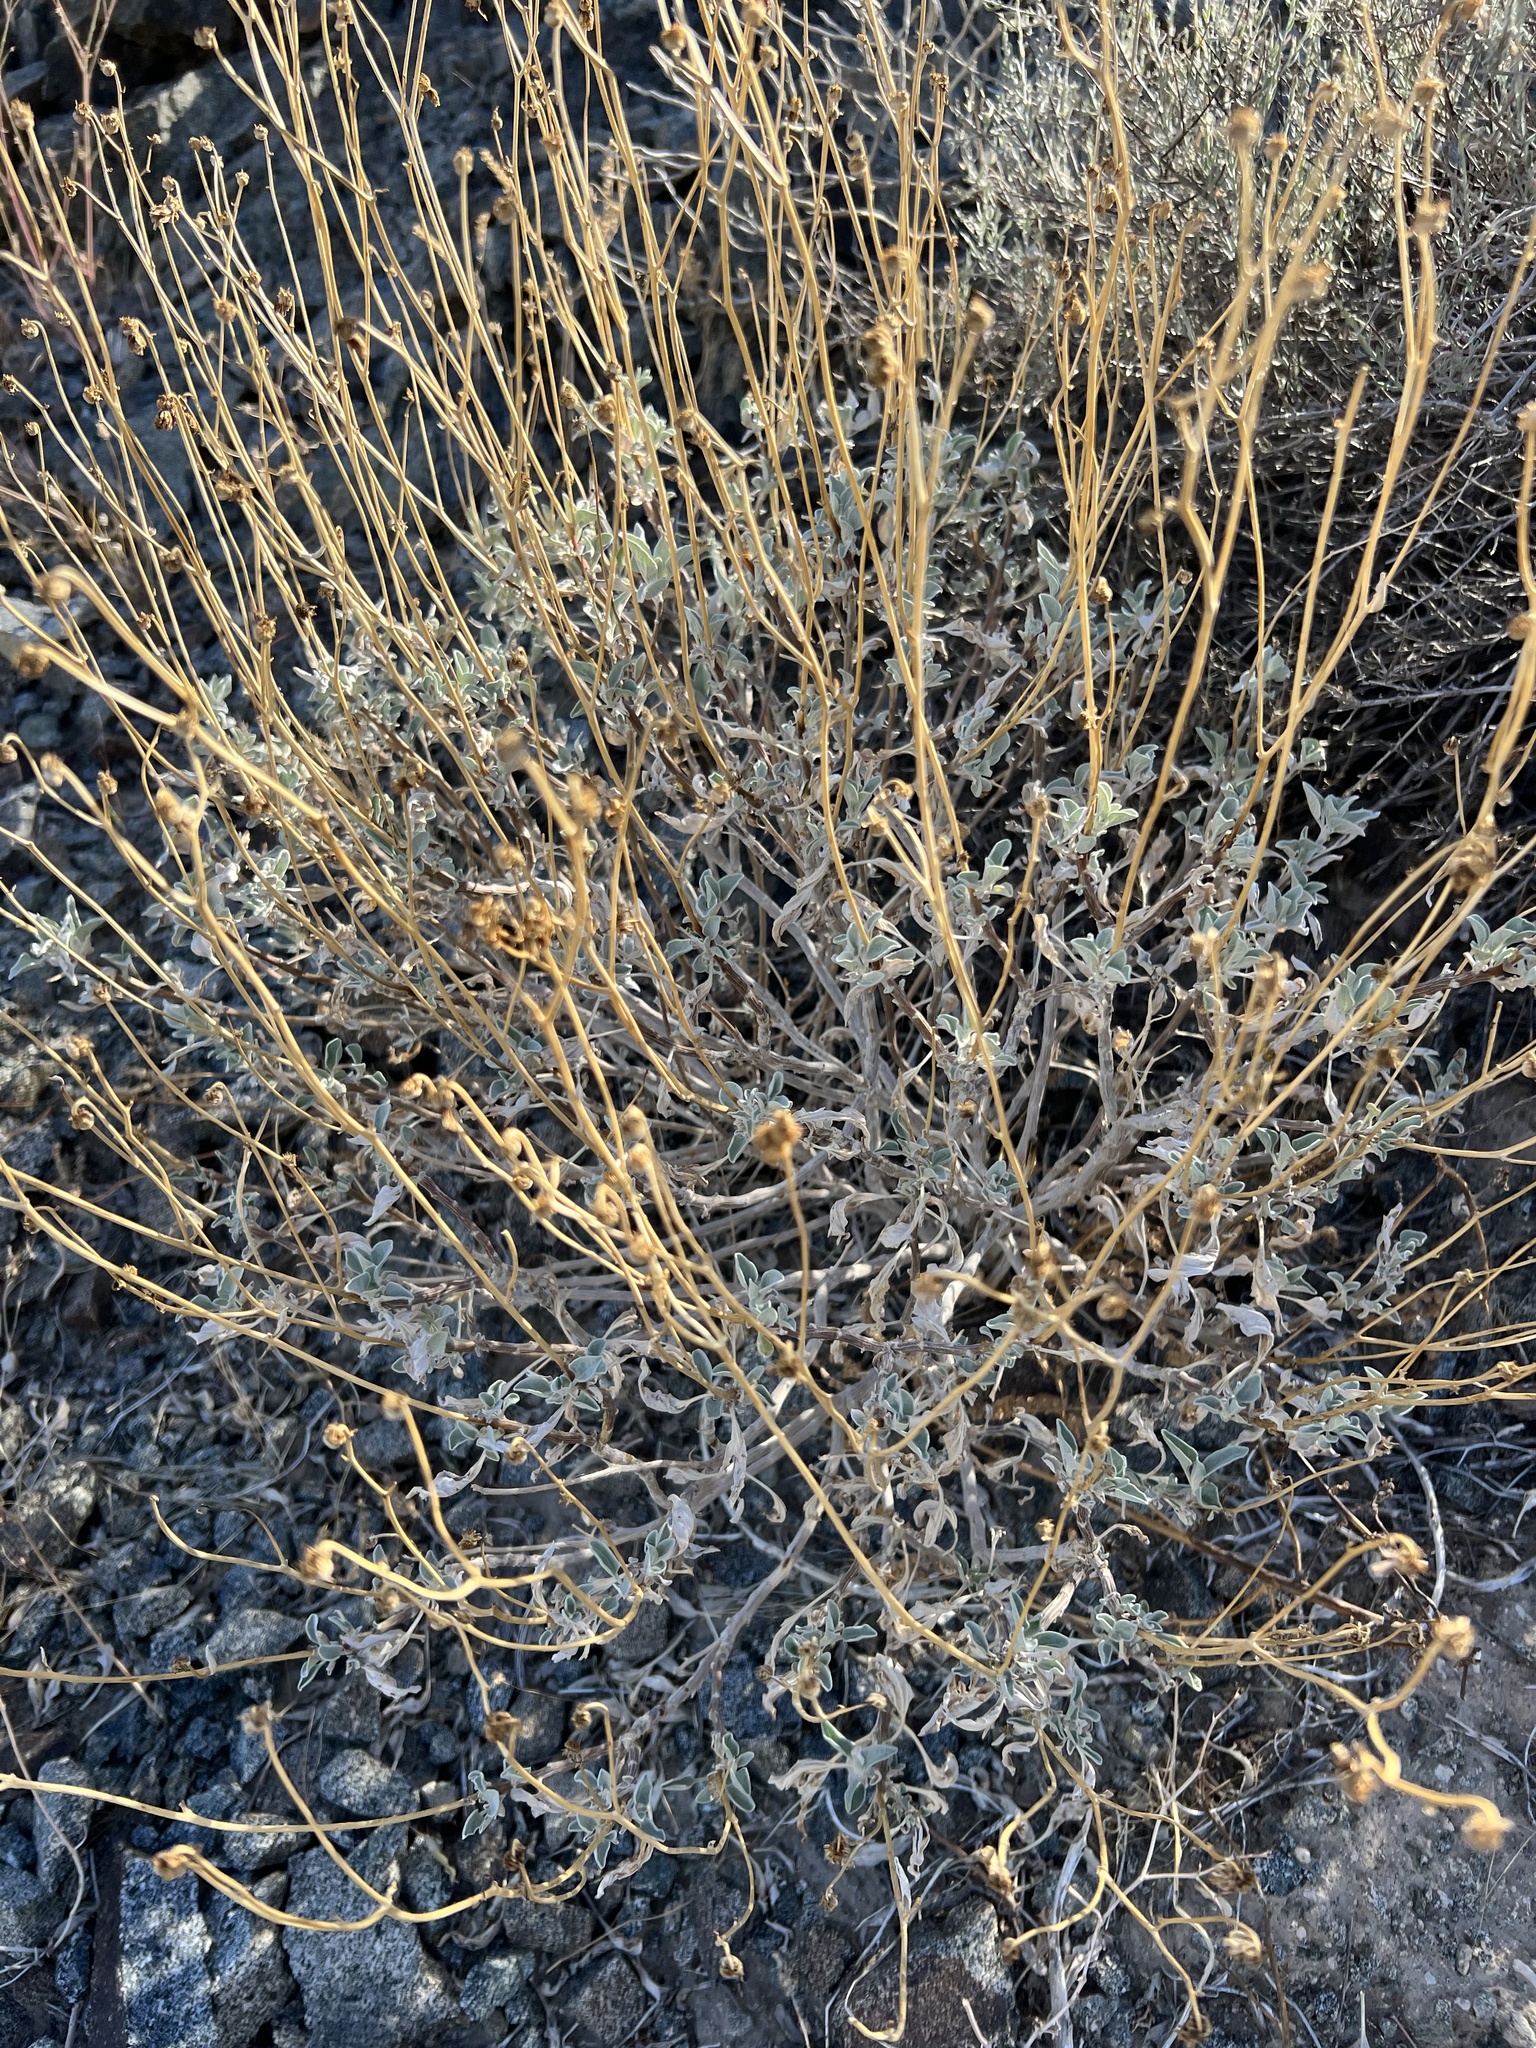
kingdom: Plantae
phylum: Tracheophyta
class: Magnoliopsida
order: Asterales
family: Asteraceae
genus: Encelia
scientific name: Encelia farinosa
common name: Brittlebush
